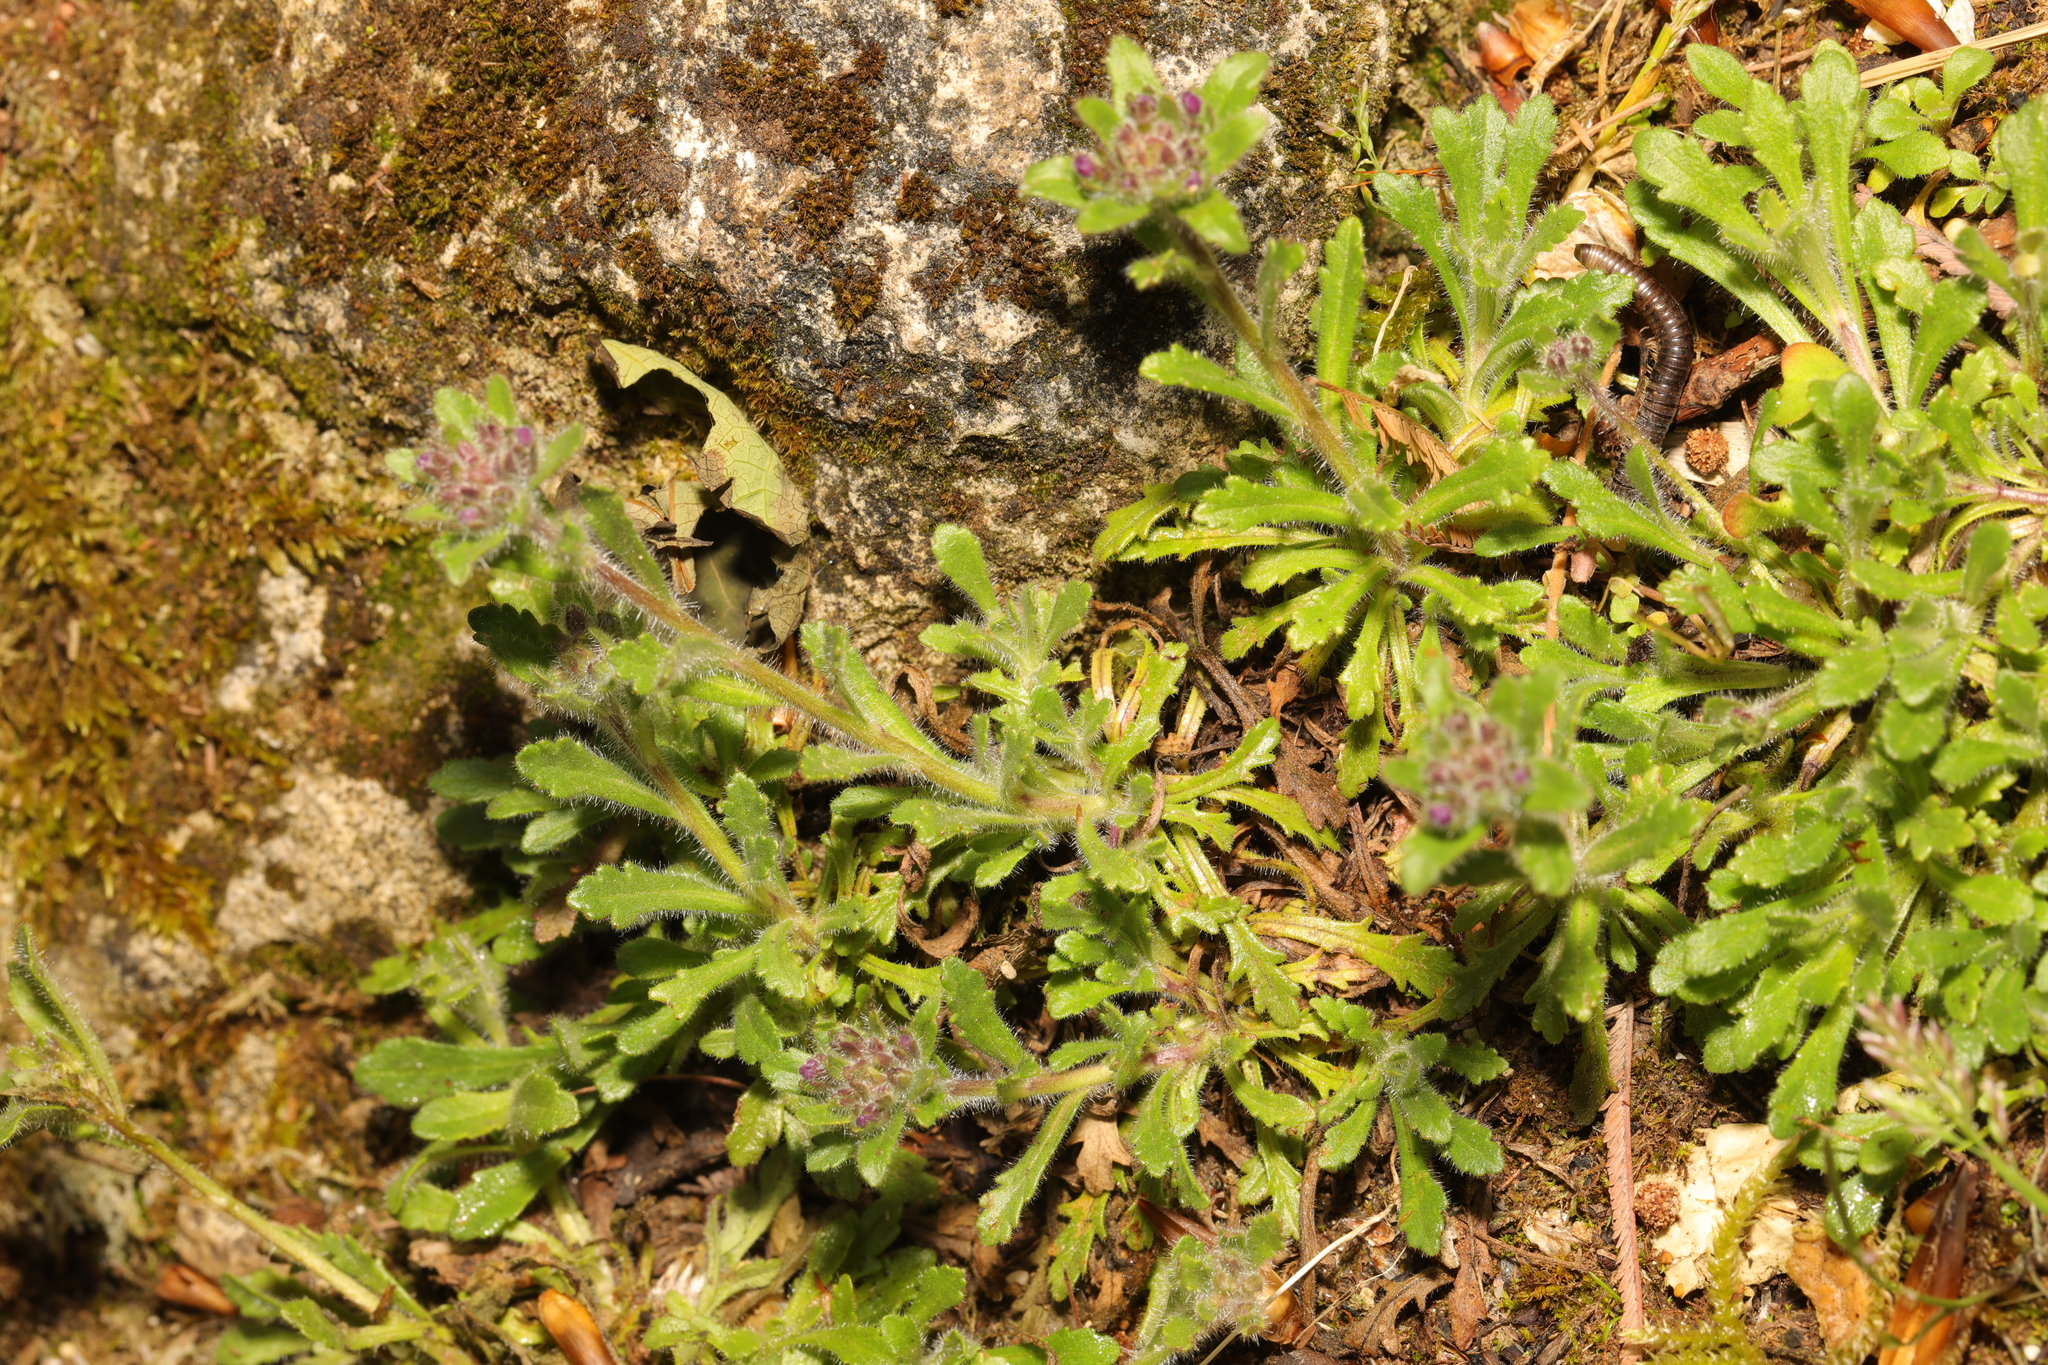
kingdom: Plantae
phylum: Tracheophyta
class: Magnoliopsida
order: Lamiales
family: Plantaginaceae
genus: Erinus
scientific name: Erinus alpinus
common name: Fairy foxglove
